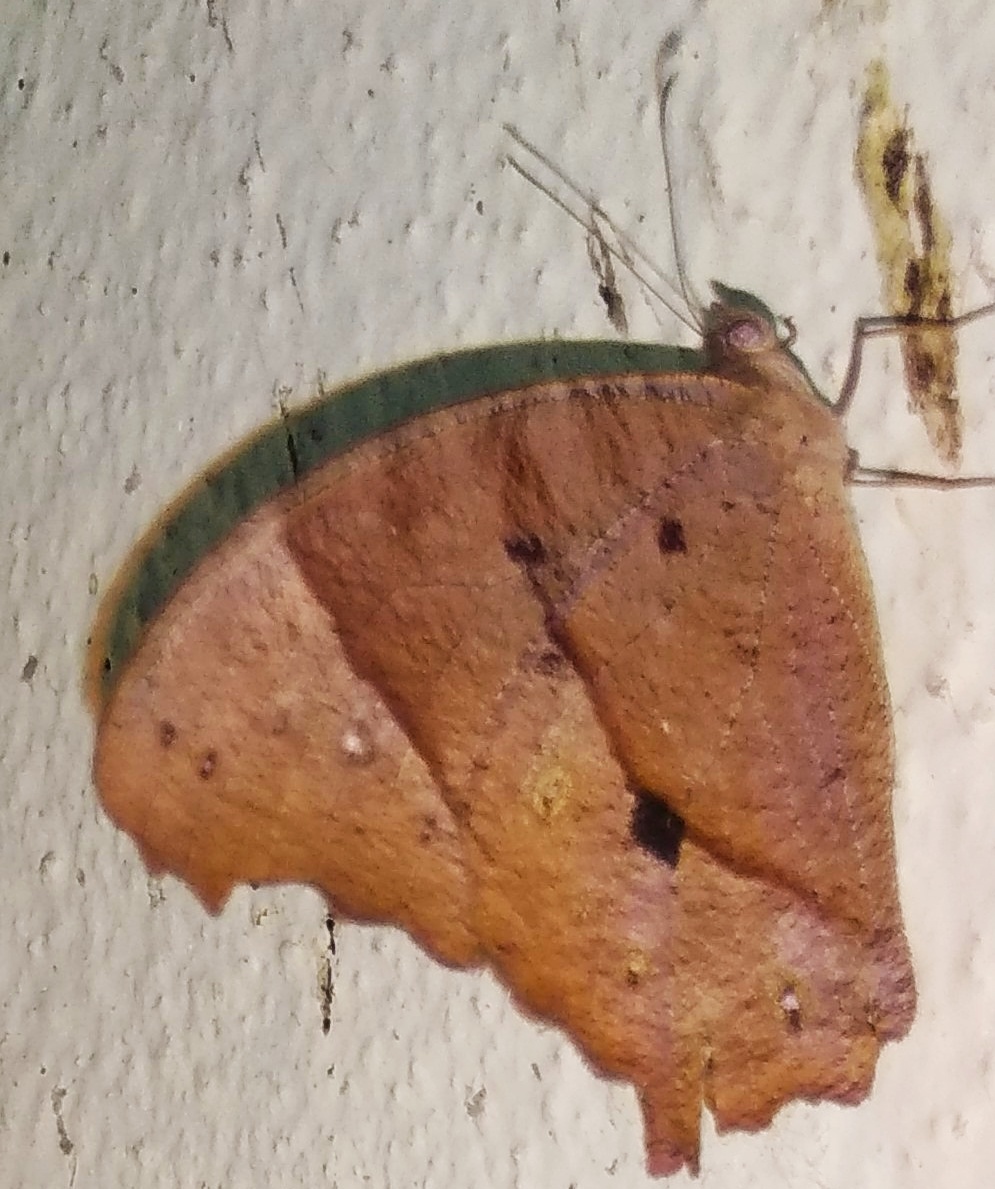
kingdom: Animalia
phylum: Arthropoda
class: Insecta
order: Lepidoptera
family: Nymphalidae
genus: Melanitis
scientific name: Melanitis leda
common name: Twilight brown
